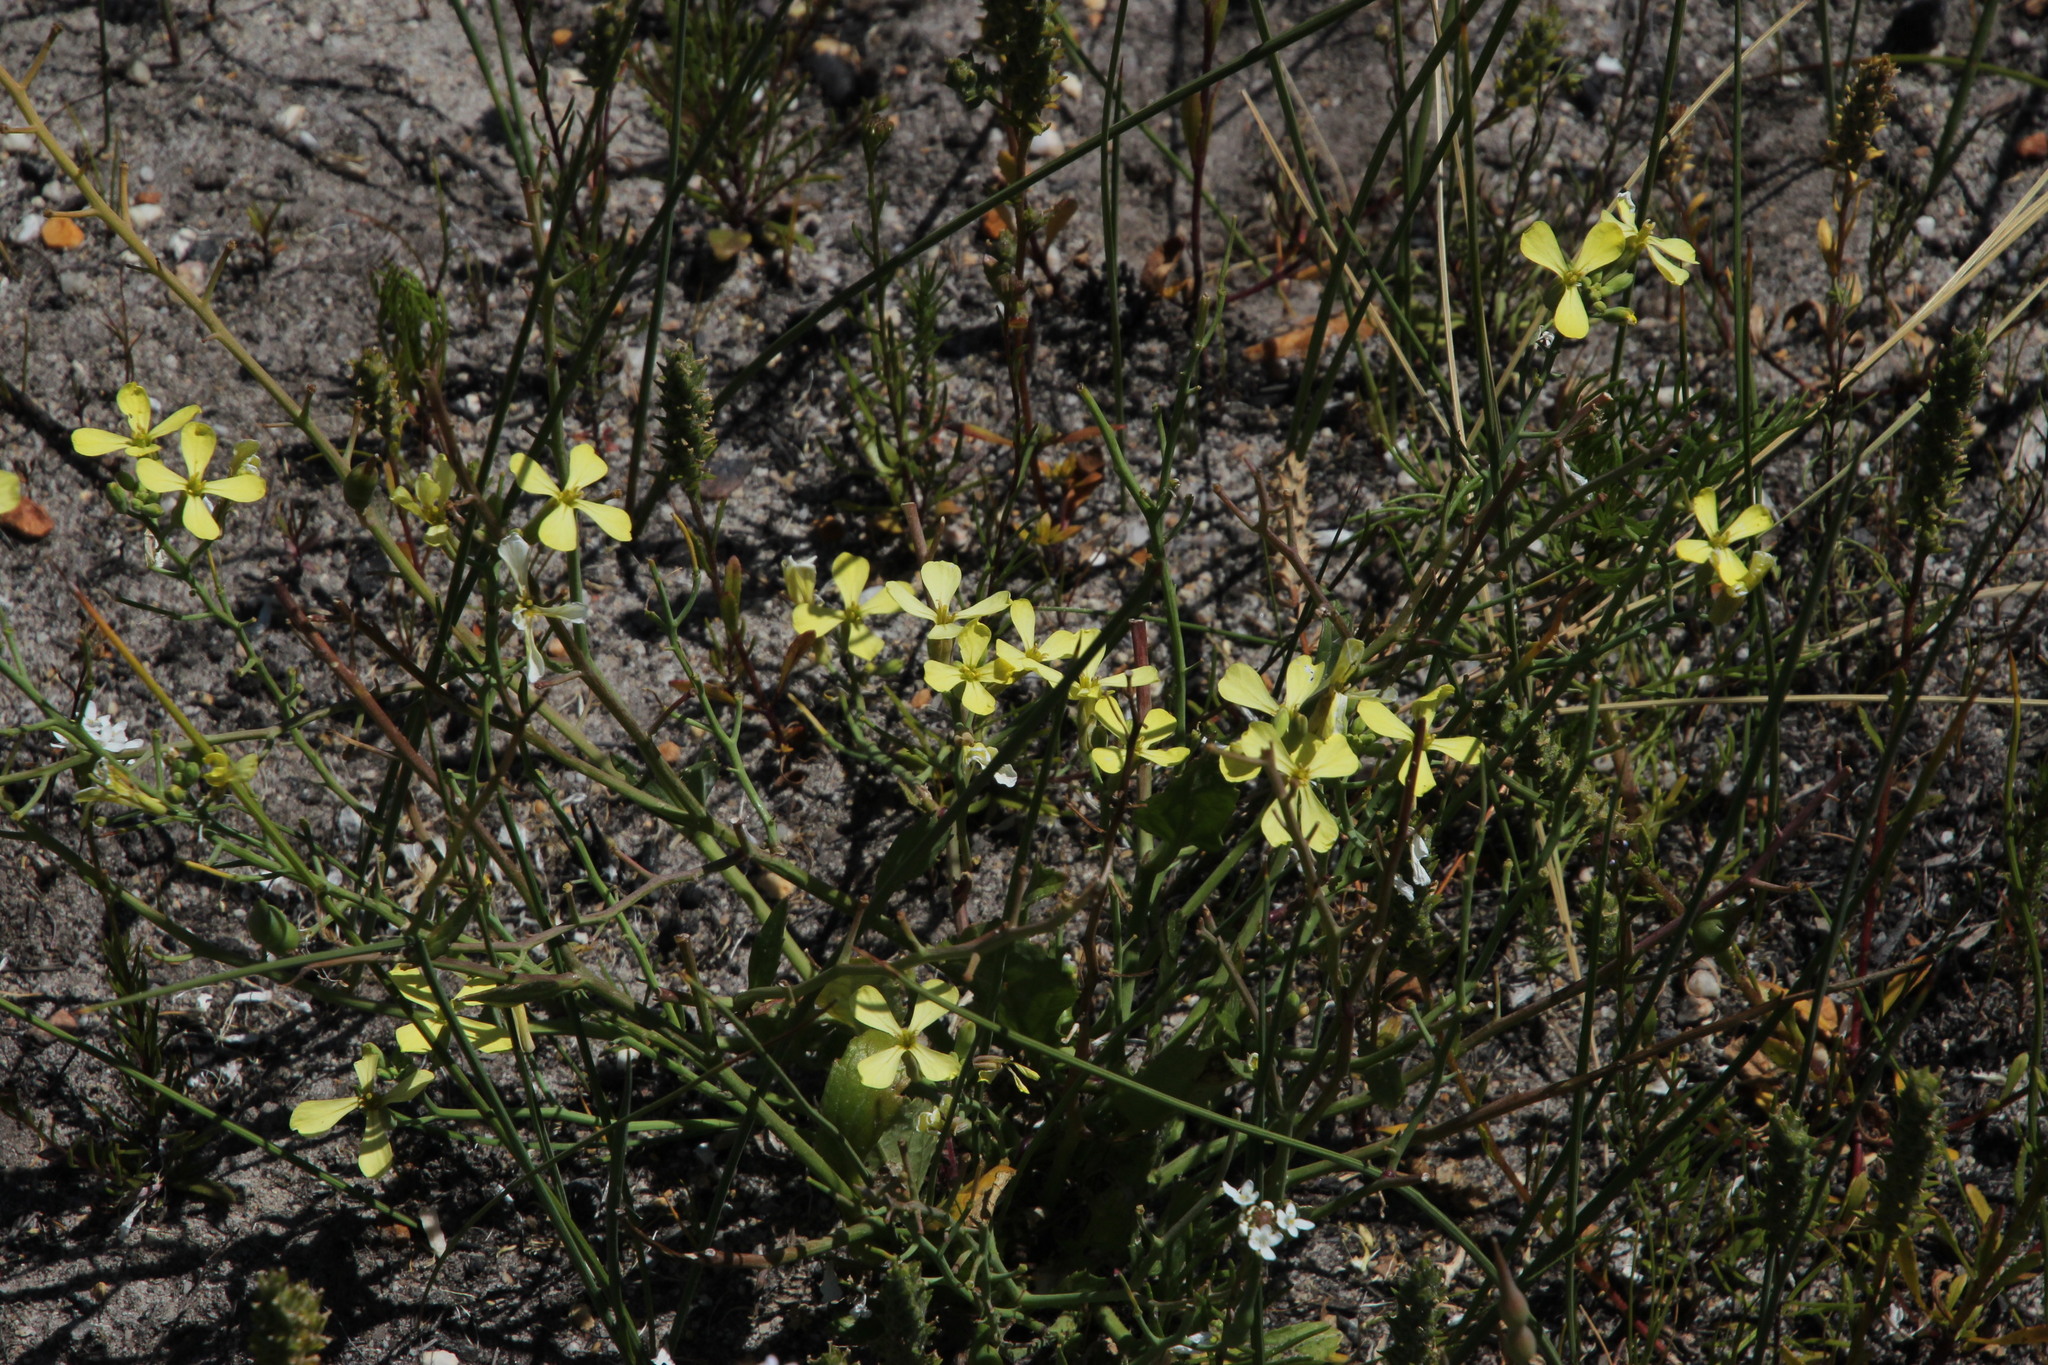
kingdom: Plantae
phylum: Tracheophyta
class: Magnoliopsida
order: Brassicales
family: Brassicaceae
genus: Raphanus
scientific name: Raphanus raphanistrum
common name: Wild radish
